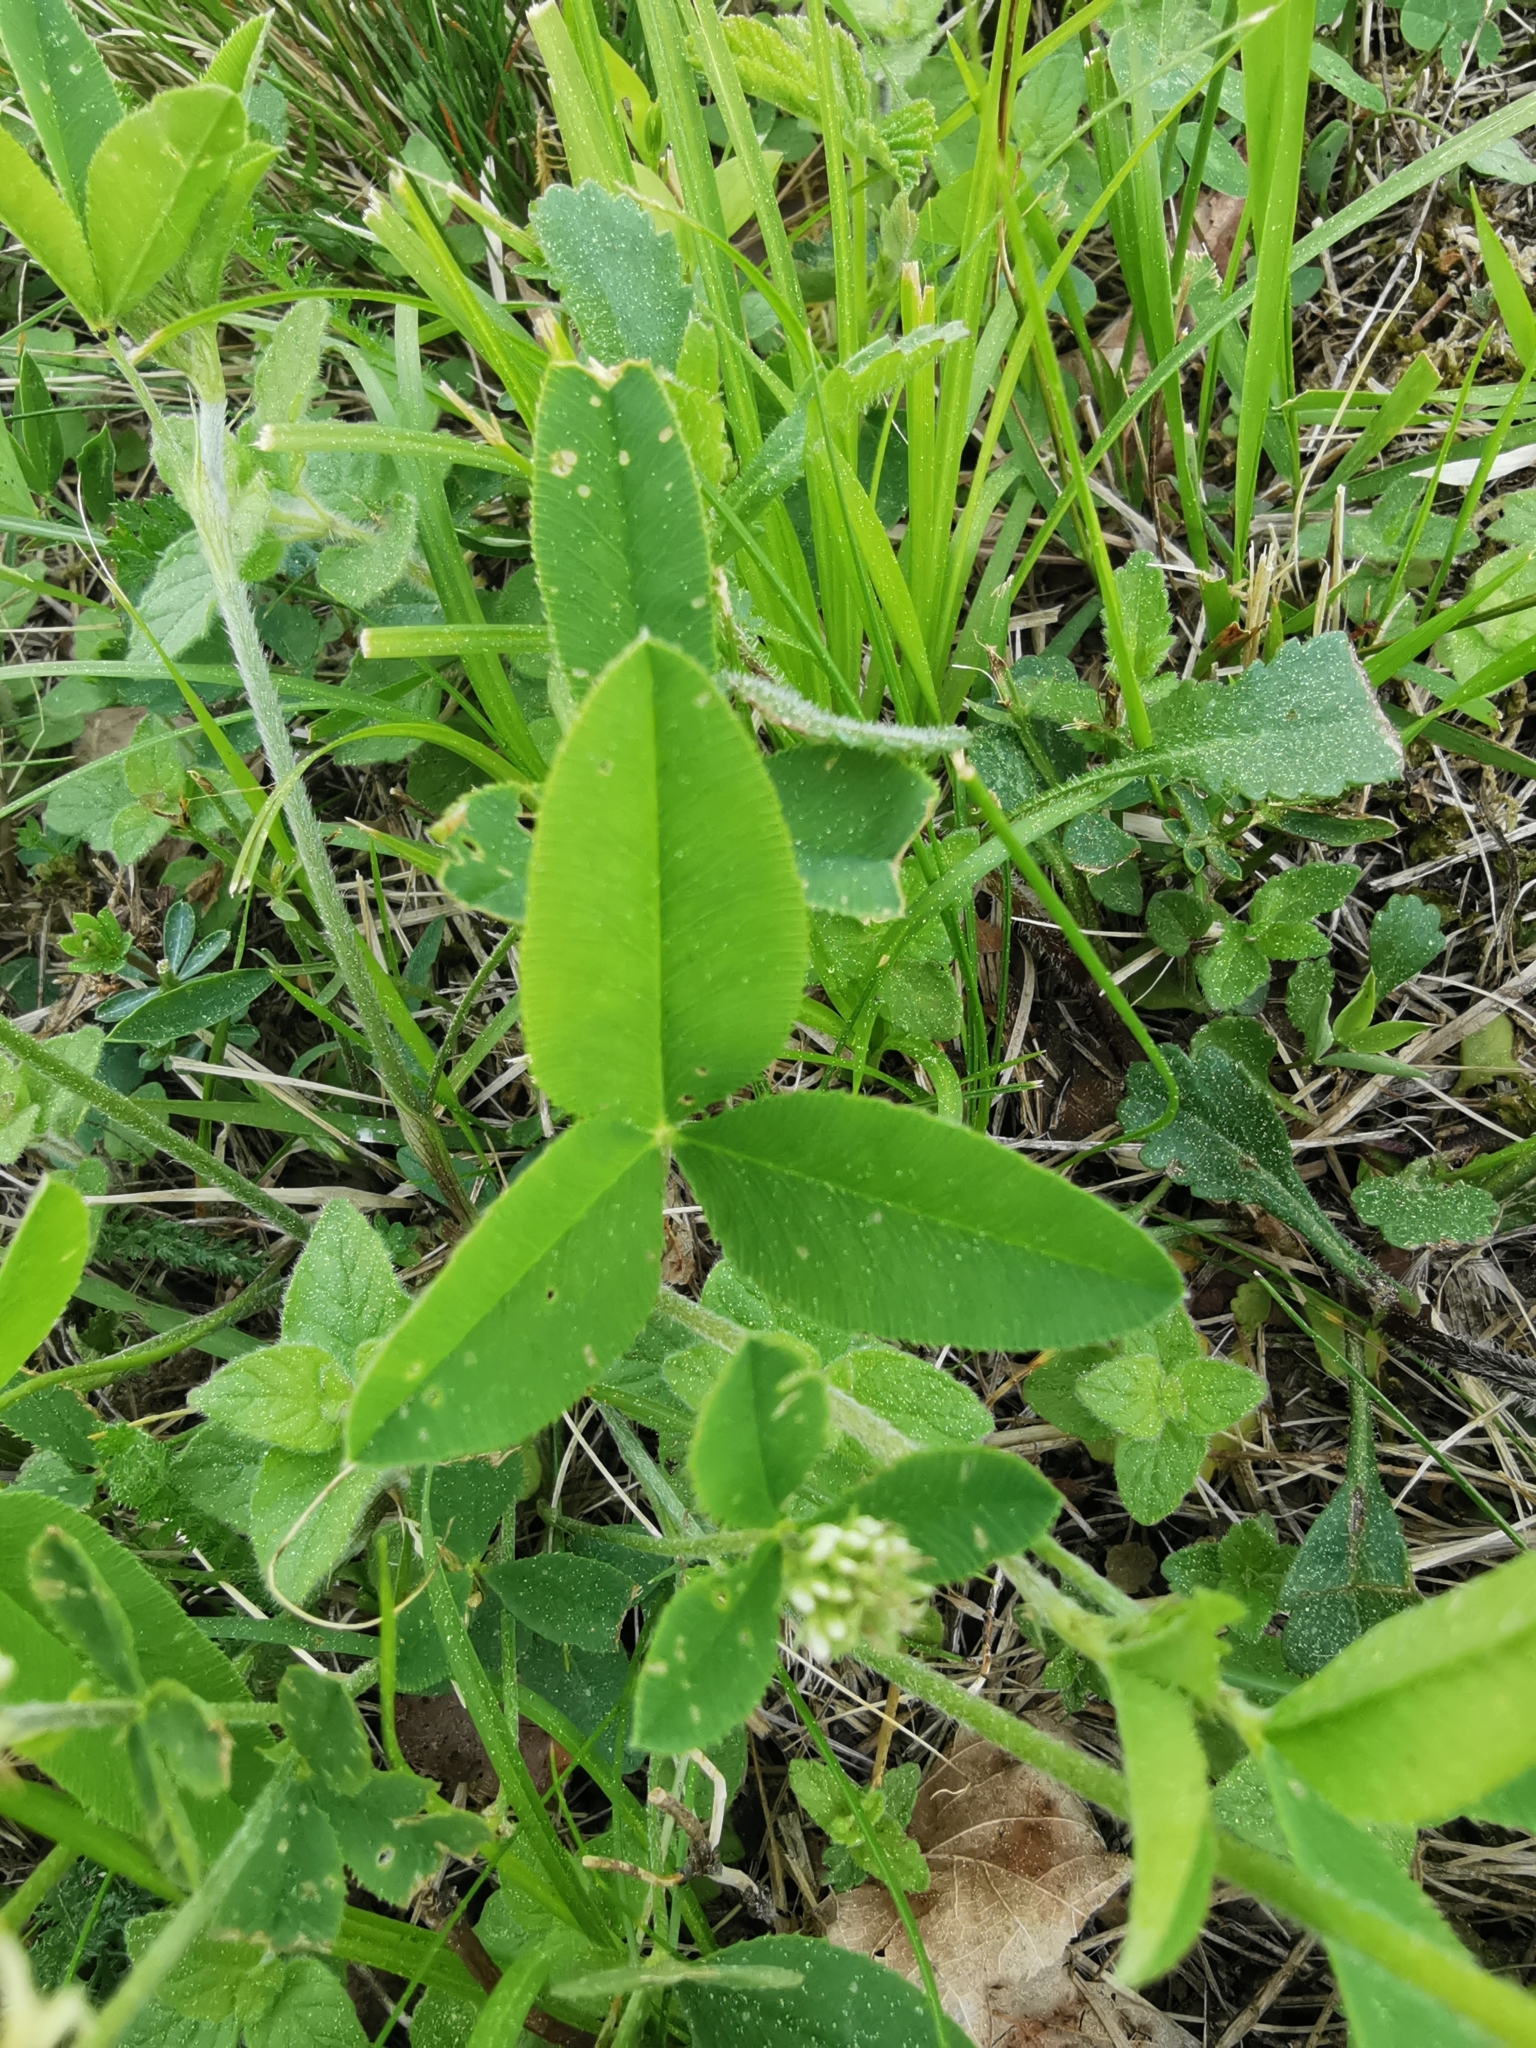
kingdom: Plantae
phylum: Tracheophyta
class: Magnoliopsida
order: Fabales
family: Fabaceae
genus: Trifolium
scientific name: Trifolium montanum
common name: Mountain clover
